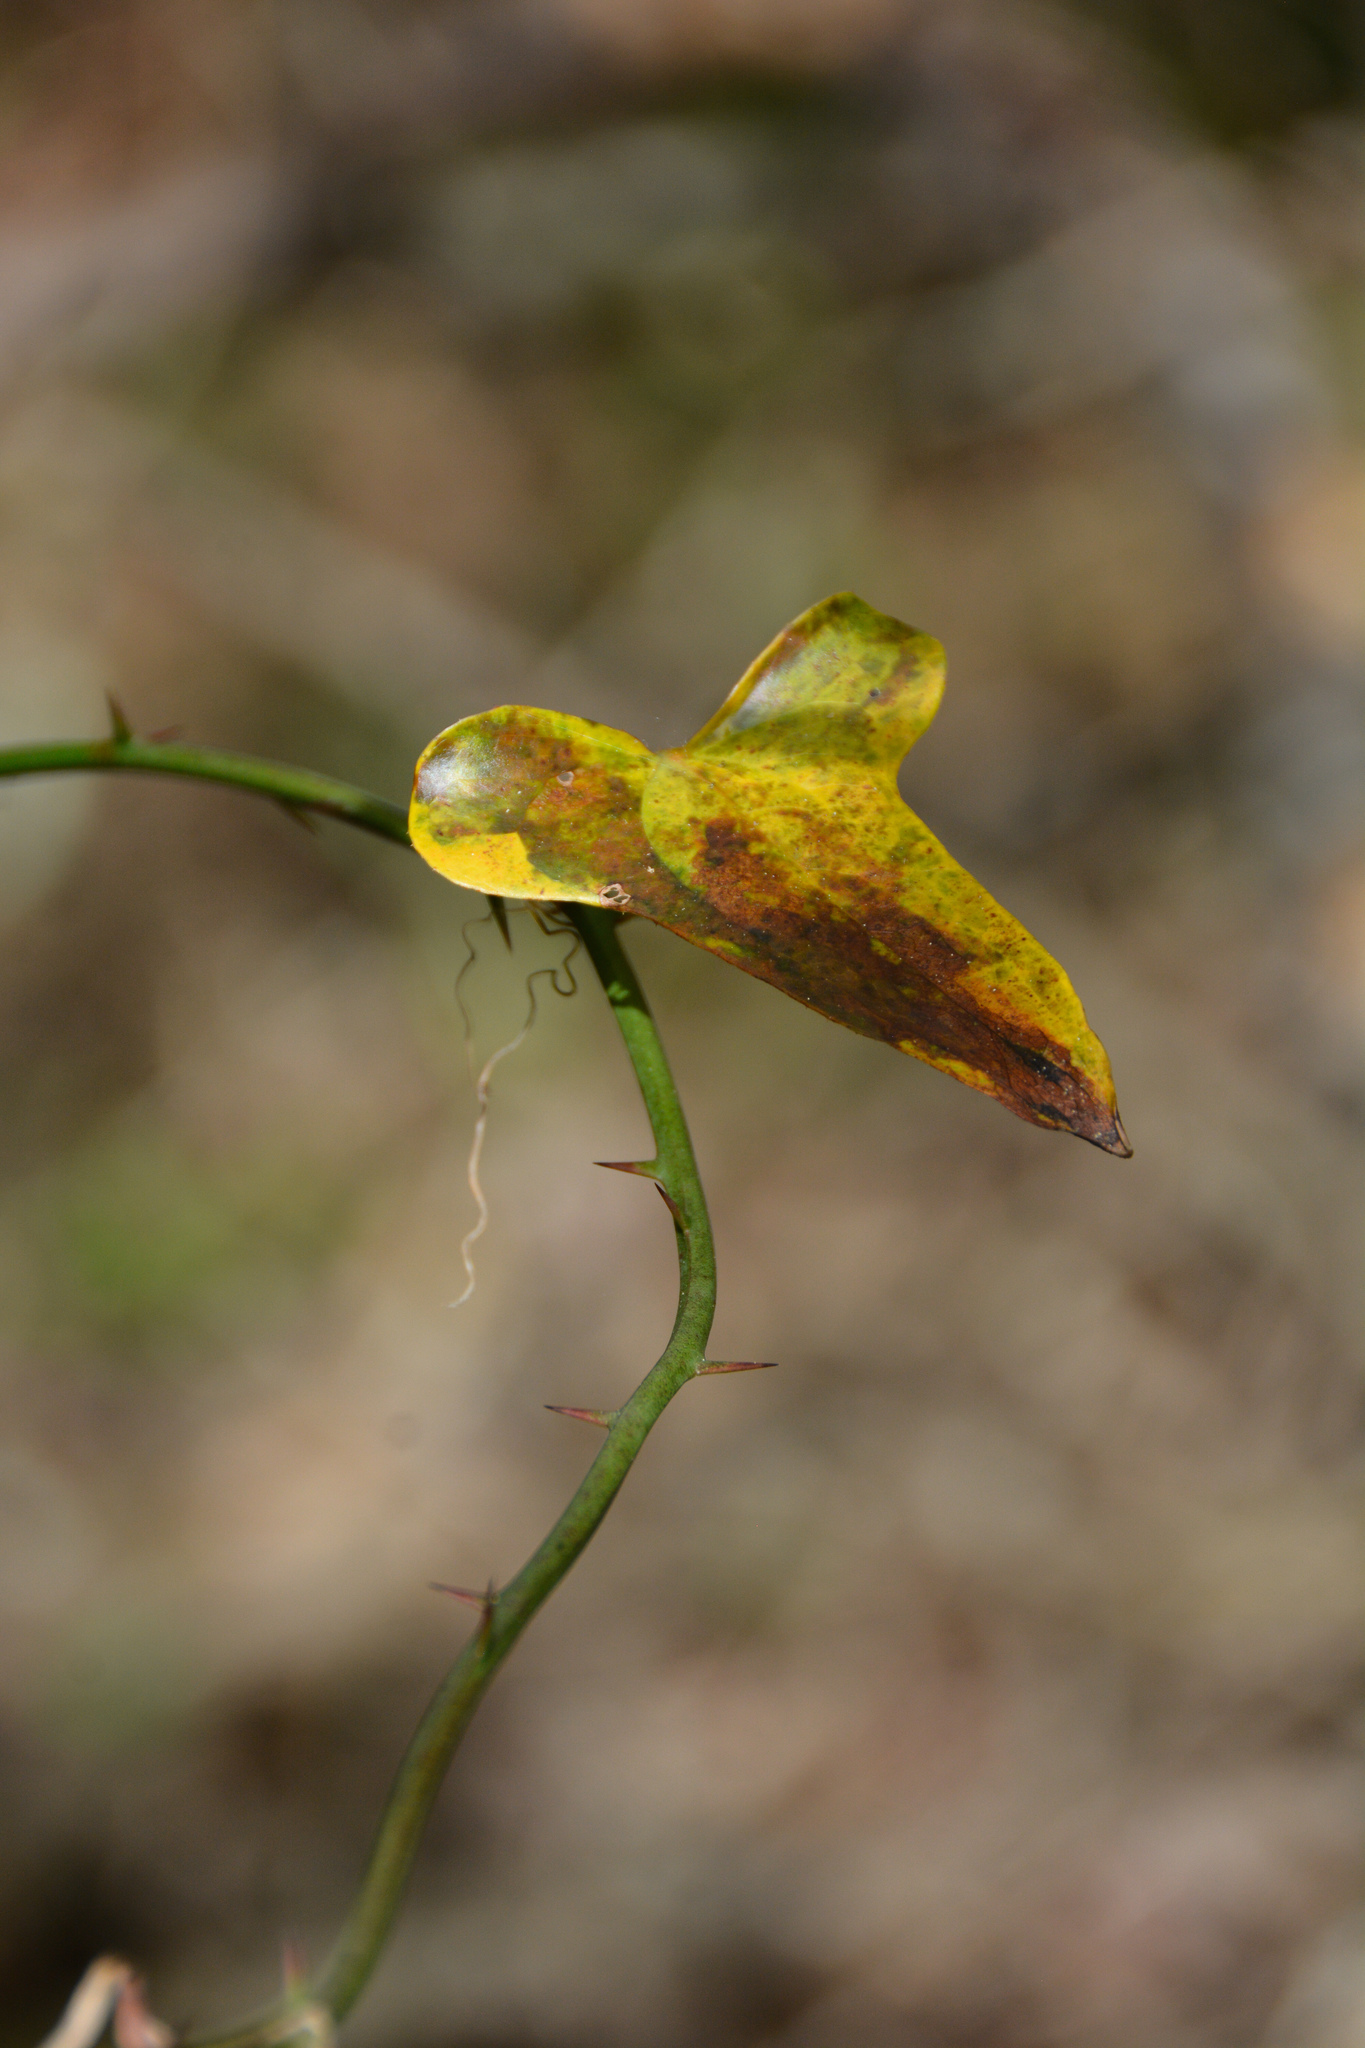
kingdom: Plantae
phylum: Tracheophyta
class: Liliopsida
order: Liliales
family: Smilacaceae
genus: Smilax
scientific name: Smilax bona-nox
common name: Catbrier
